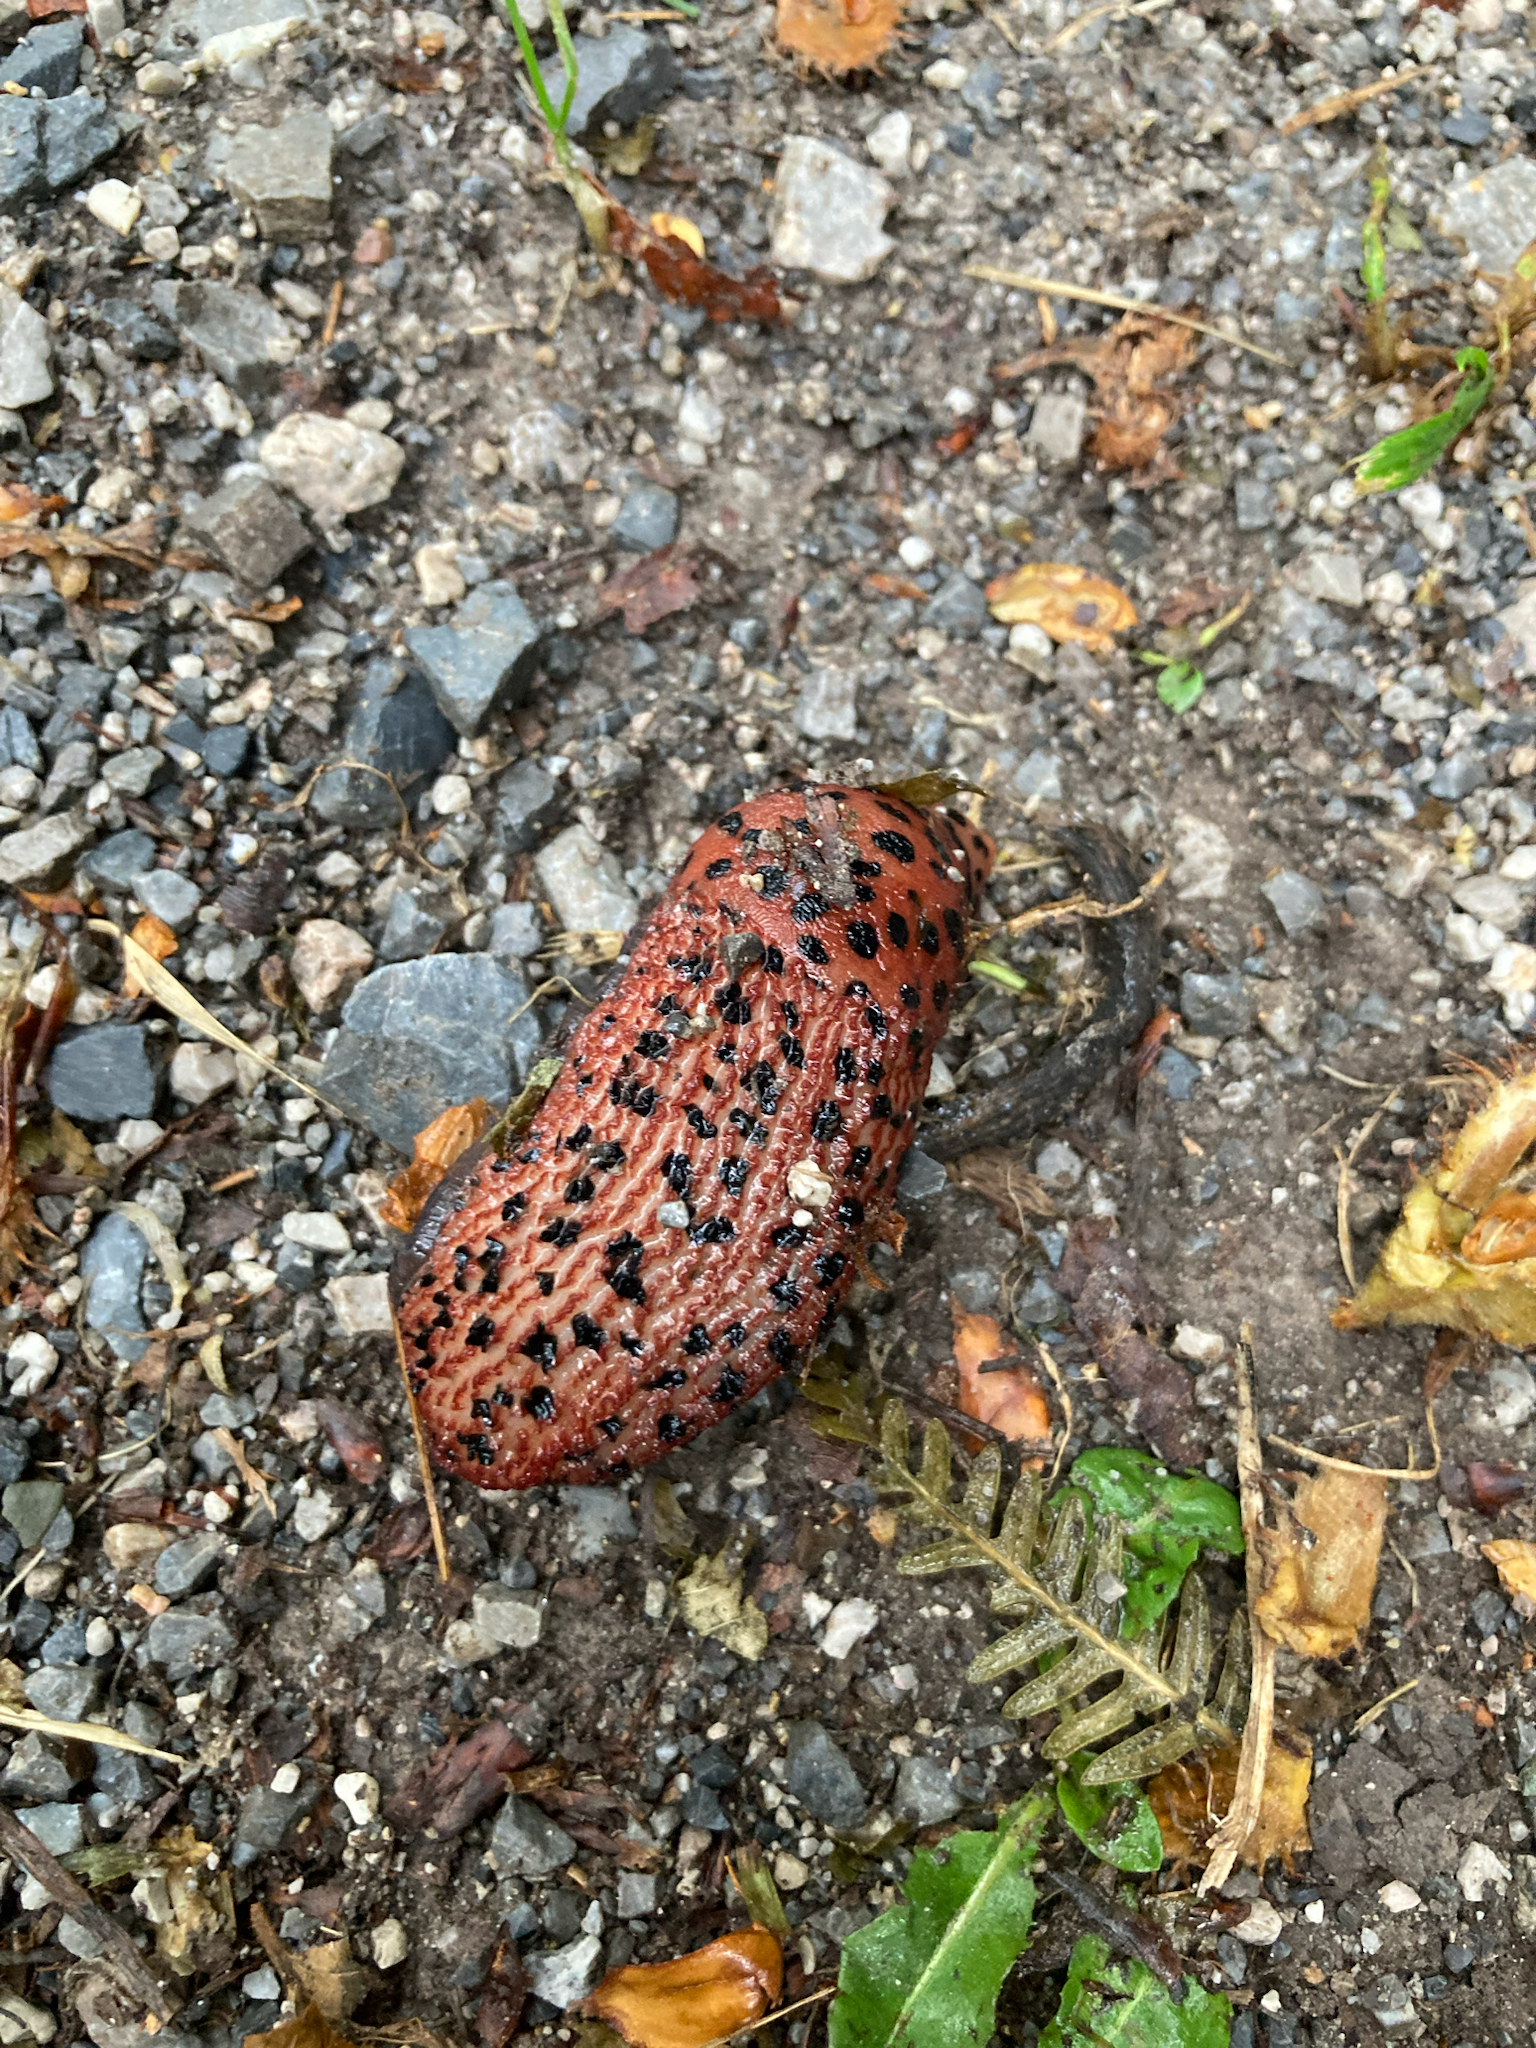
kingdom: Animalia
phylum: Mollusca
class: Gastropoda
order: Stylommatophora
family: Limacidae
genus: Limax
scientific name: Limax dacampi
